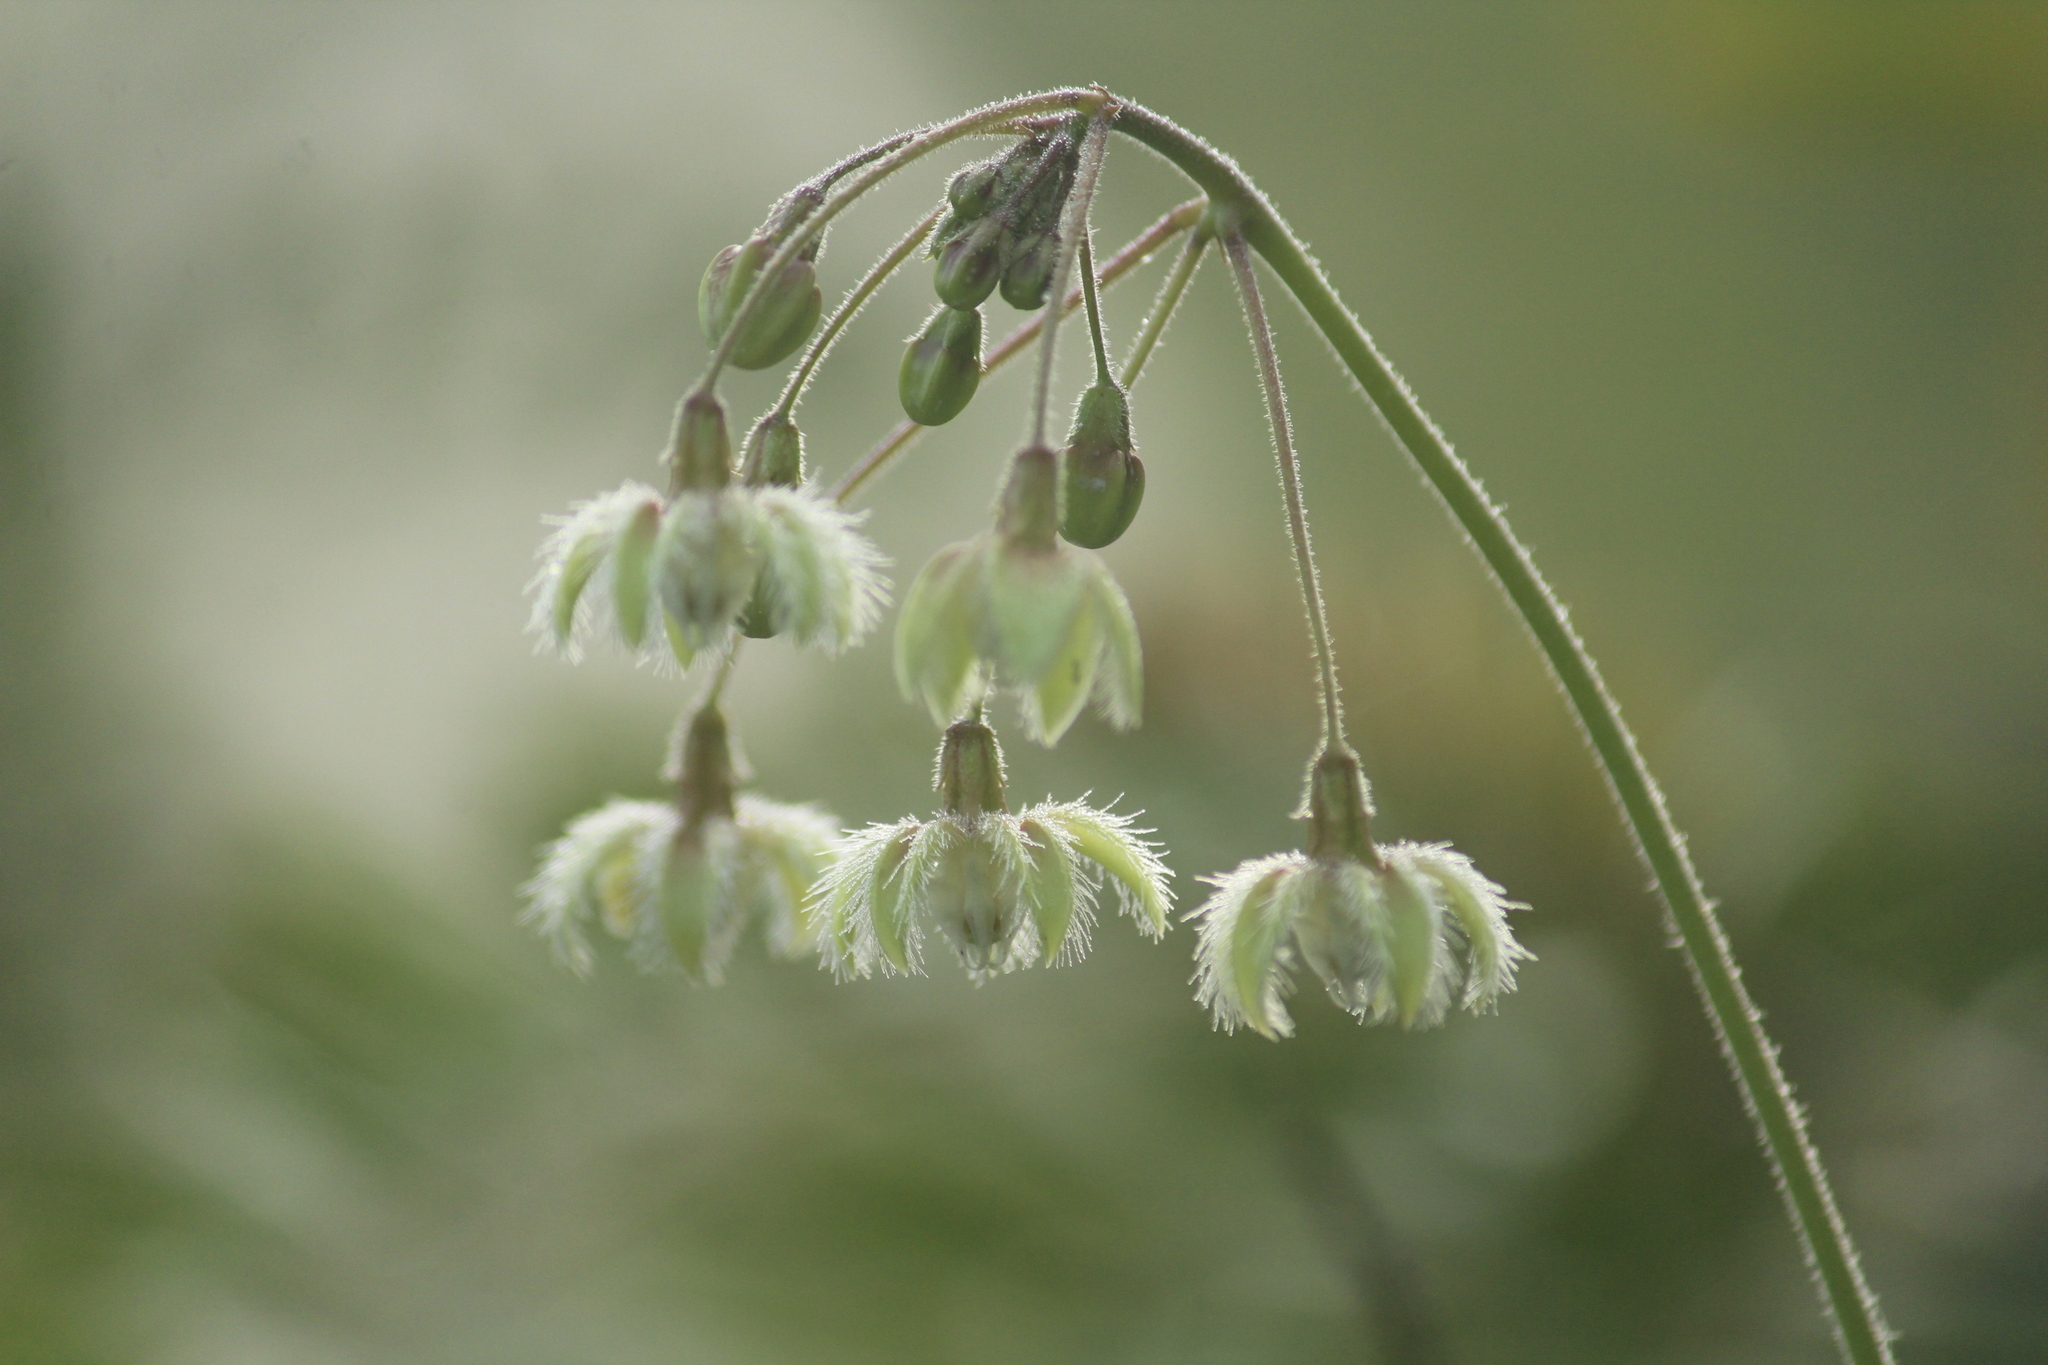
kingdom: Plantae
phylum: Tracheophyta
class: Magnoliopsida
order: Gentianales
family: Apocynaceae
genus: Pergularia
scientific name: Pergularia daemia
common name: Trellis-vine
